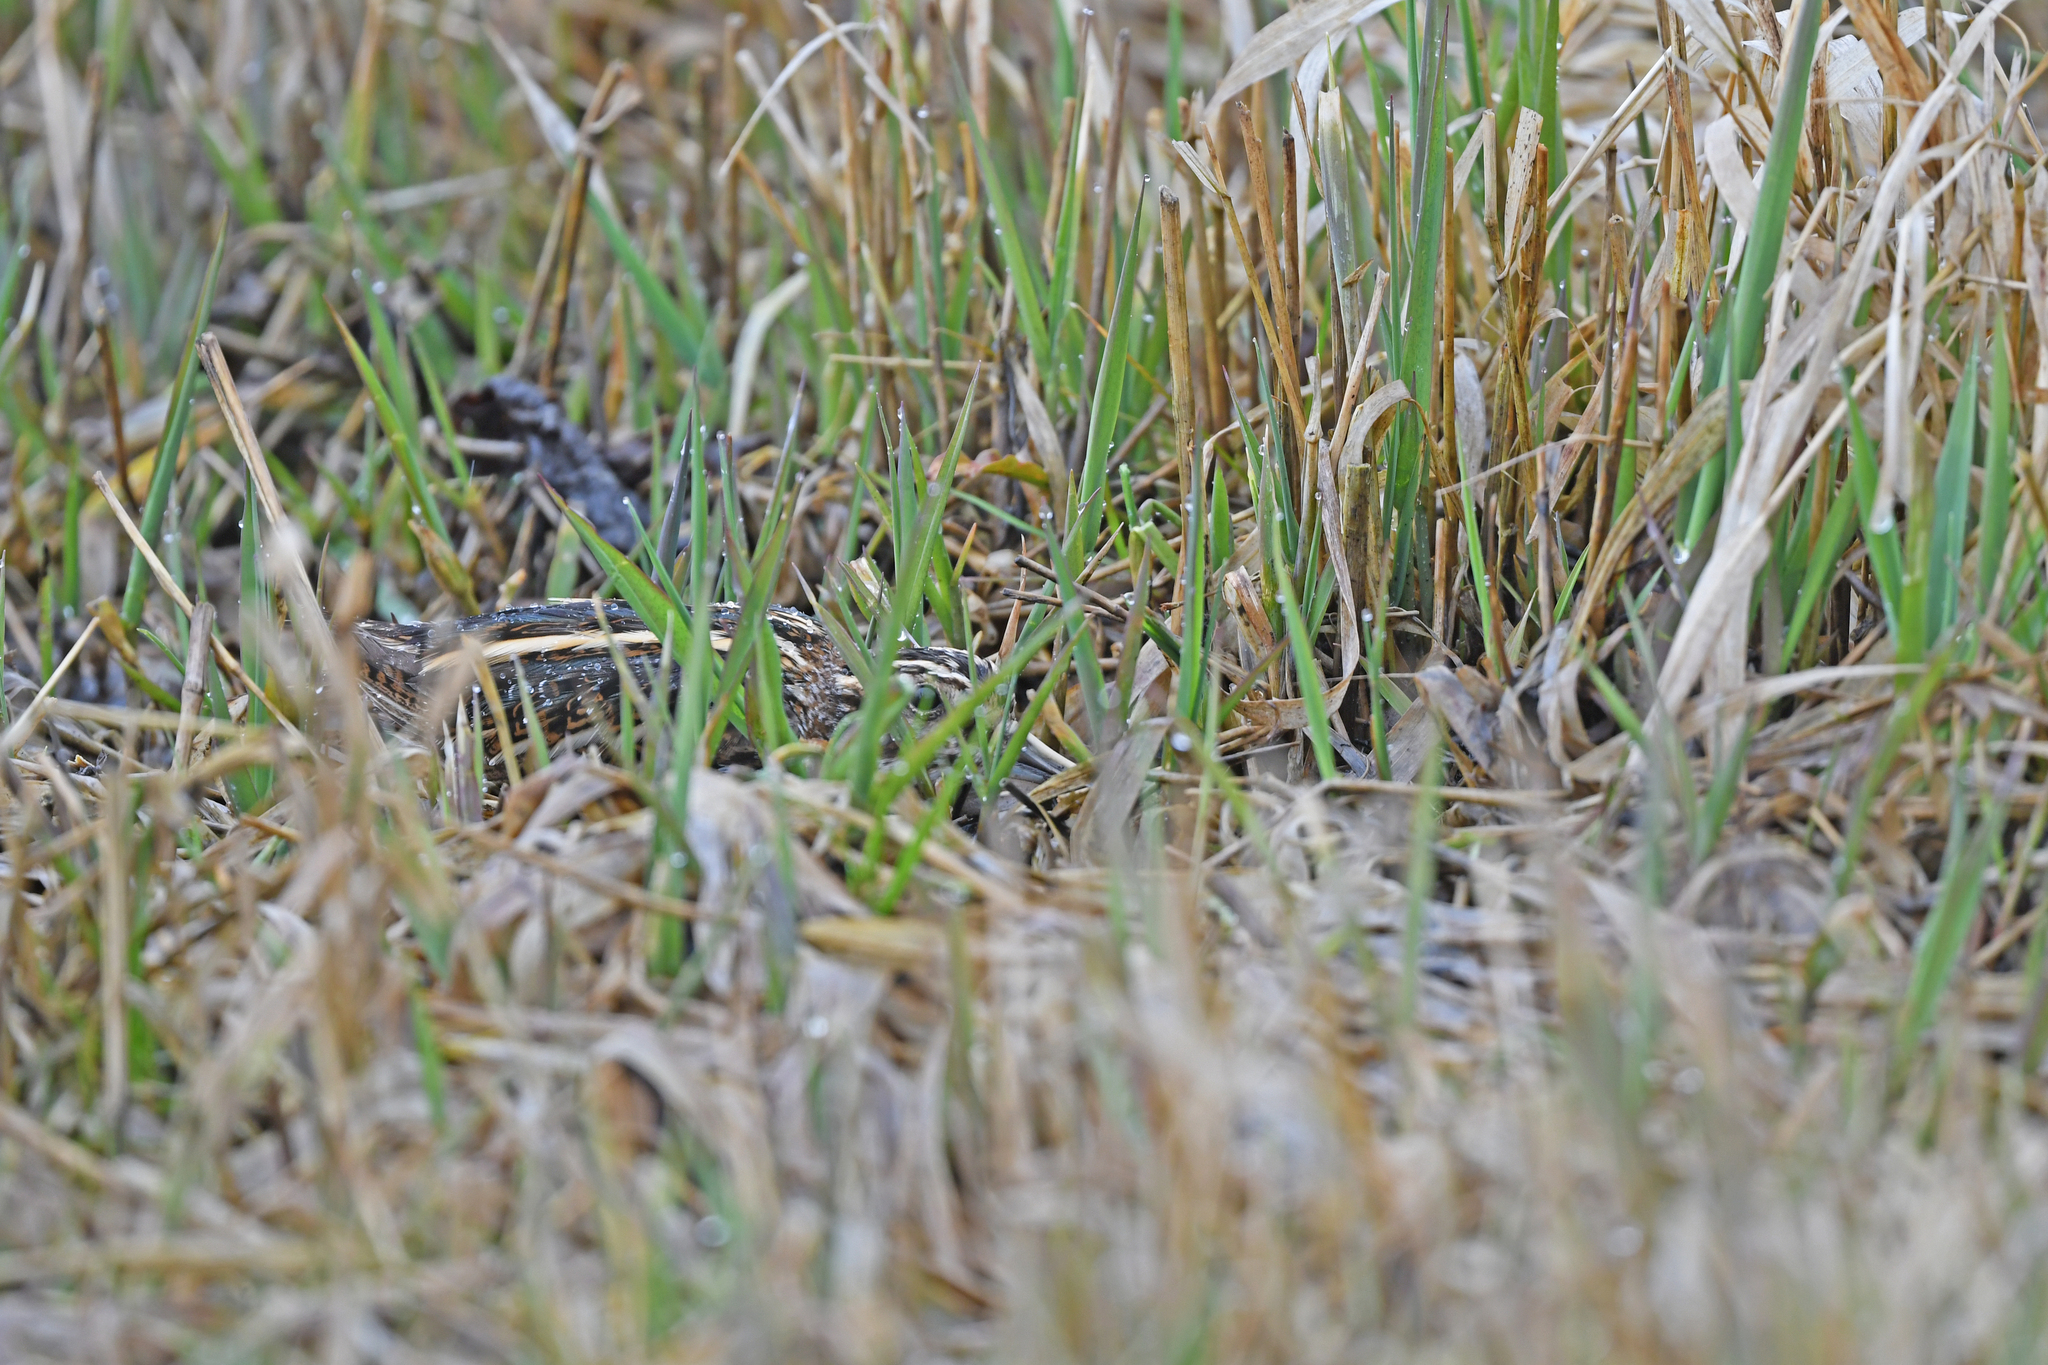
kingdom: Animalia
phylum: Chordata
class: Aves
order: Charadriiformes
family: Scolopacidae
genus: Lymnocryptes
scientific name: Lymnocryptes minimus
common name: Jack snipe
